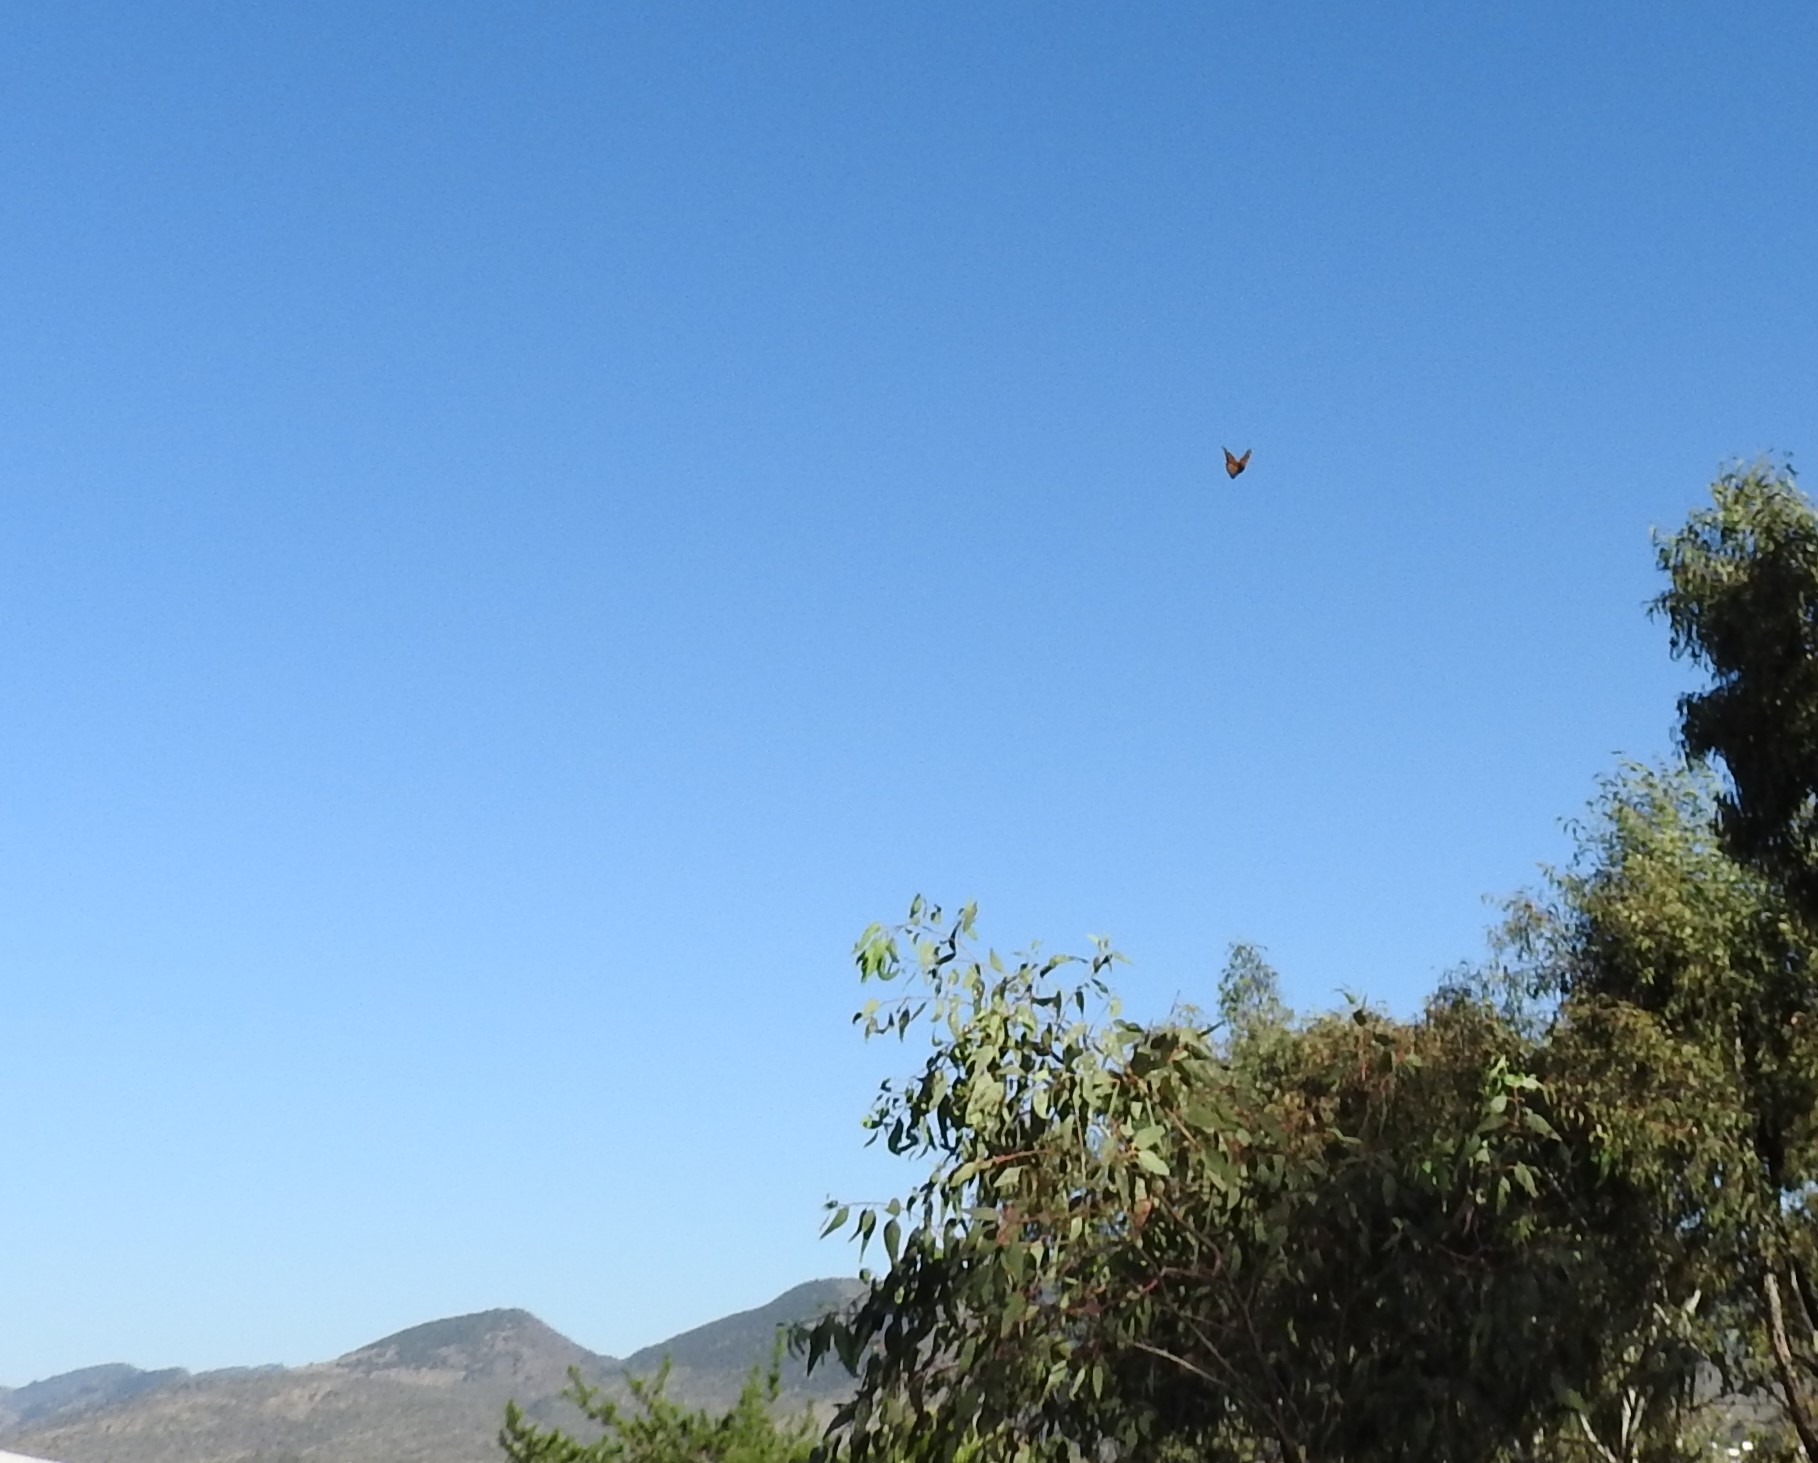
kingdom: Animalia
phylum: Arthropoda
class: Insecta
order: Lepidoptera
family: Nymphalidae
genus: Danaus
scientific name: Danaus plexippus
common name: Monarch
